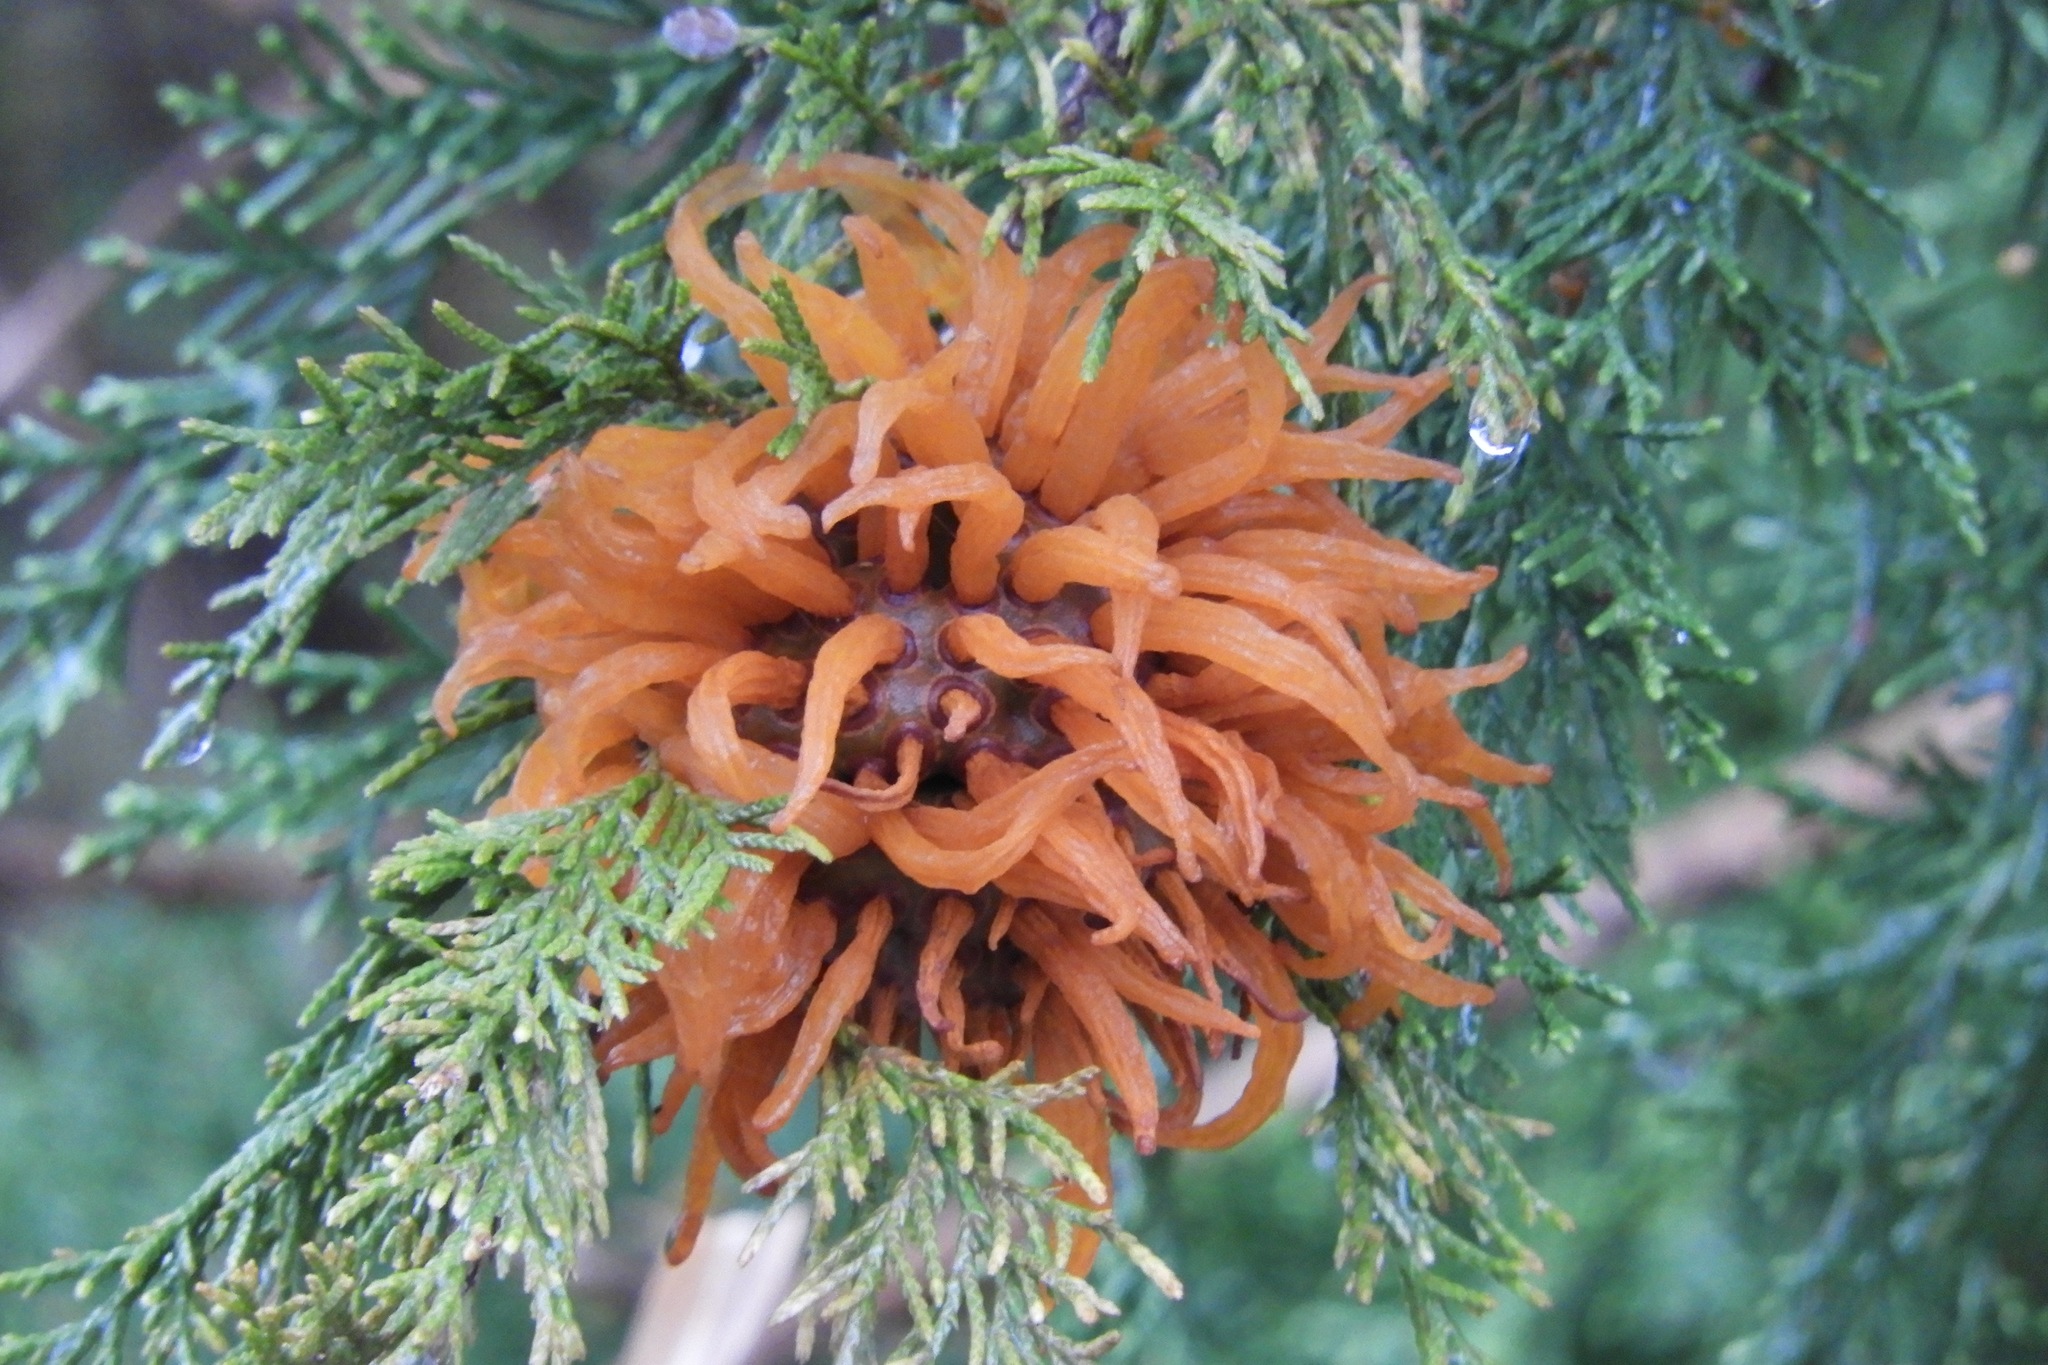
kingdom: Fungi
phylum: Basidiomycota
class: Pucciniomycetes
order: Pucciniales
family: Gymnosporangiaceae
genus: Gymnosporangium
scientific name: Gymnosporangium juniperi-virginianae
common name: Juniper-apple rust
